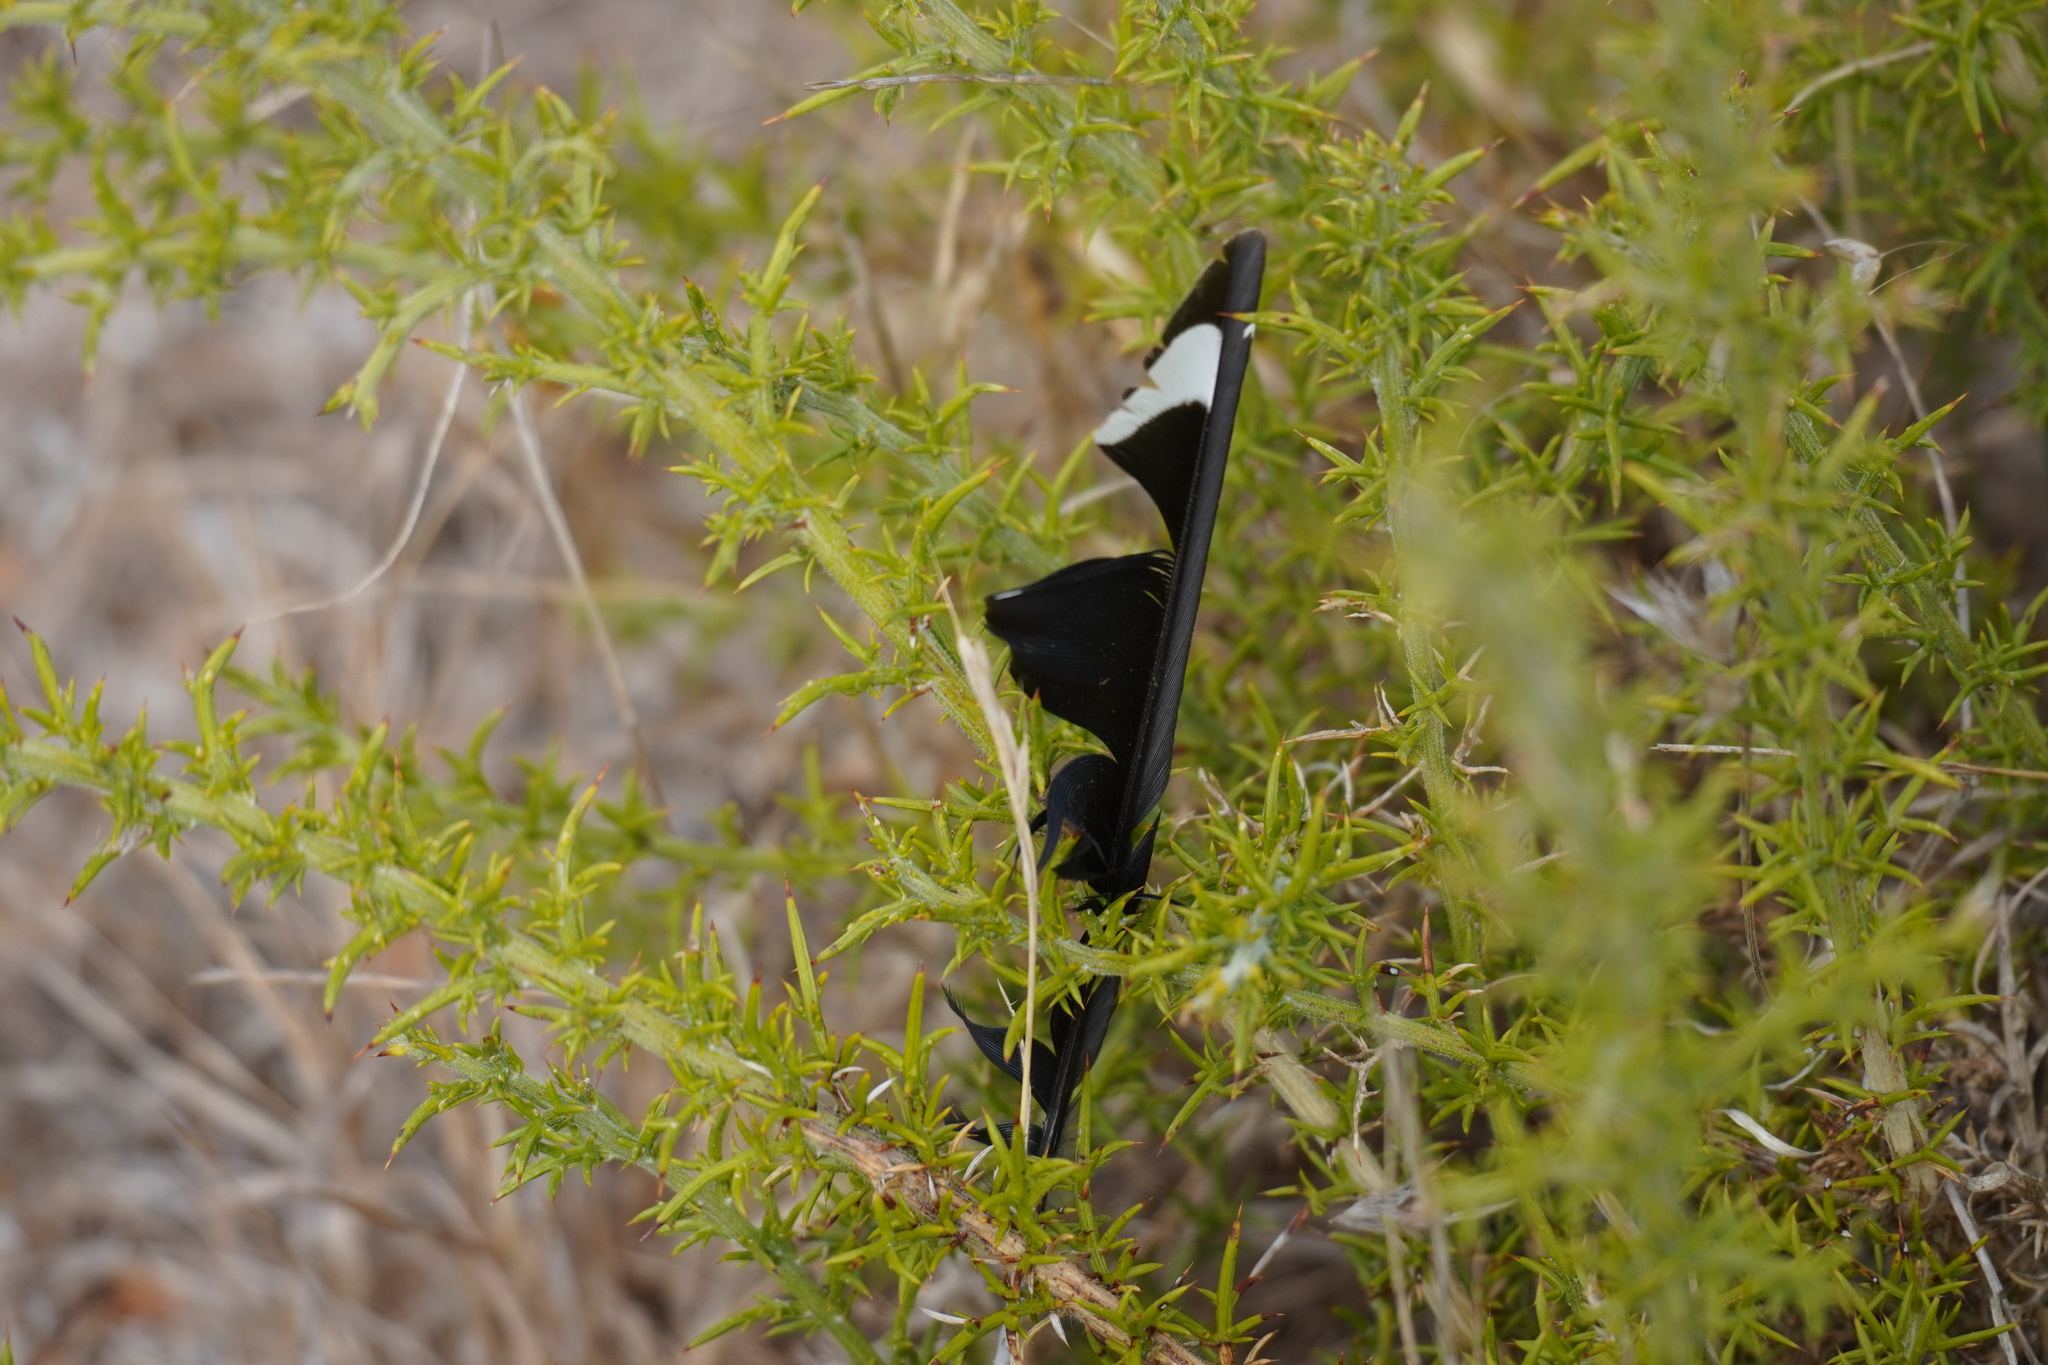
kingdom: Animalia
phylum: Chordata
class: Aves
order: Bucerotiformes
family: Upupidae
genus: Upupa
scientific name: Upupa epops
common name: Eurasian hoopoe
